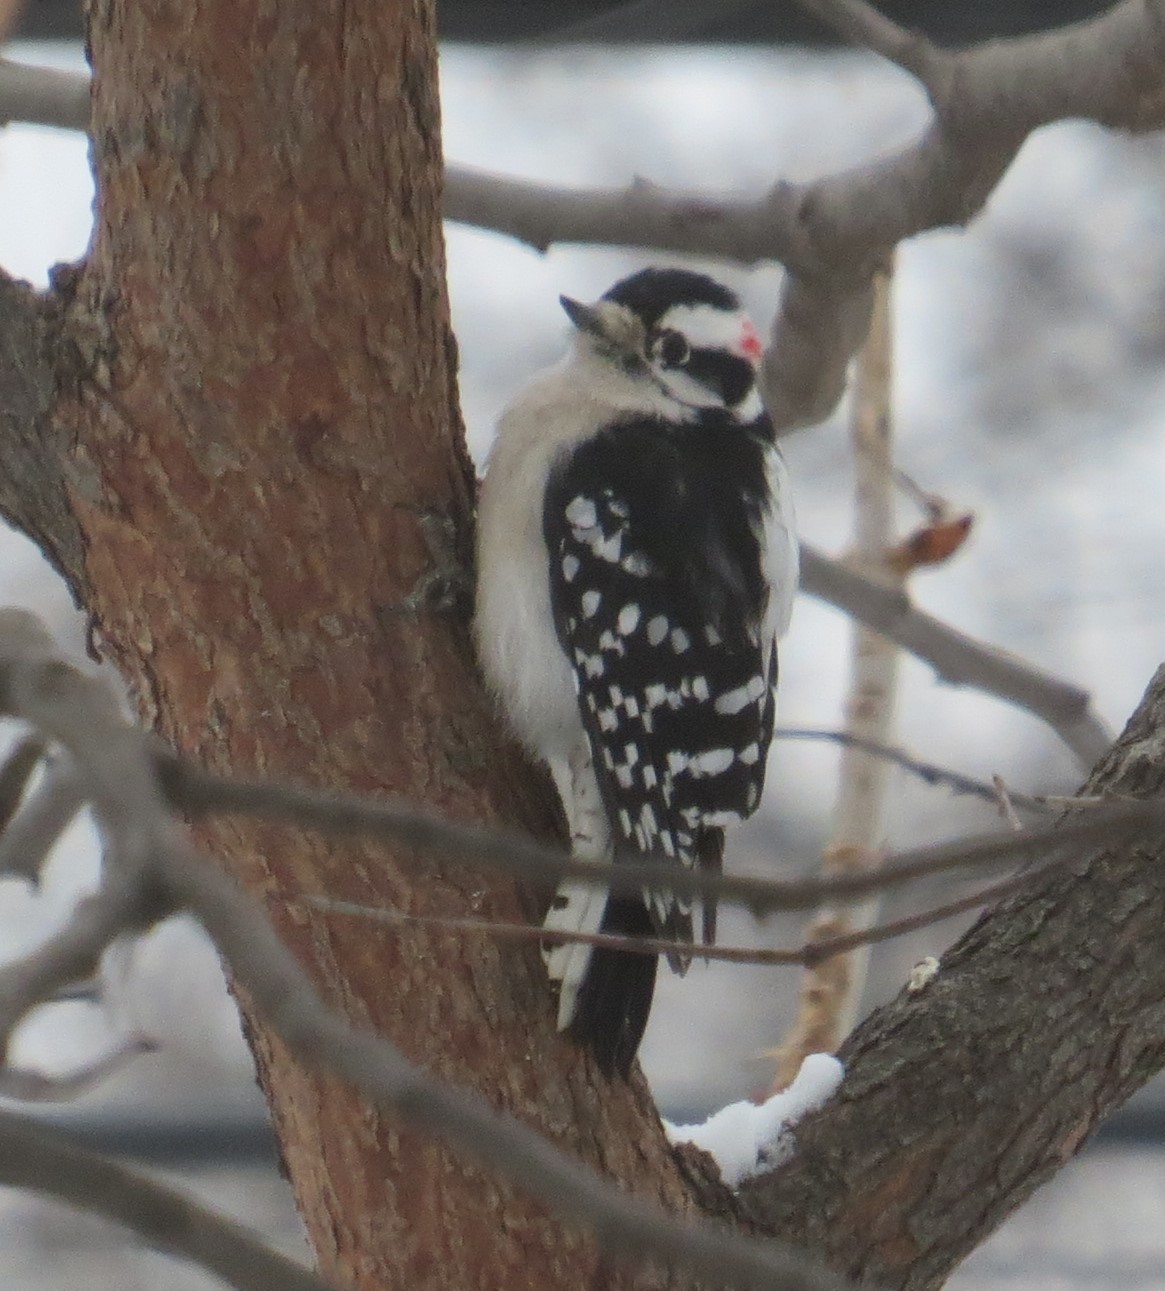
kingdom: Animalia
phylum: Chordata
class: Aves
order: Piciformes
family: Picidae
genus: Dryobates
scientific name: Dryobates pubescens
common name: Downy woodpecker
